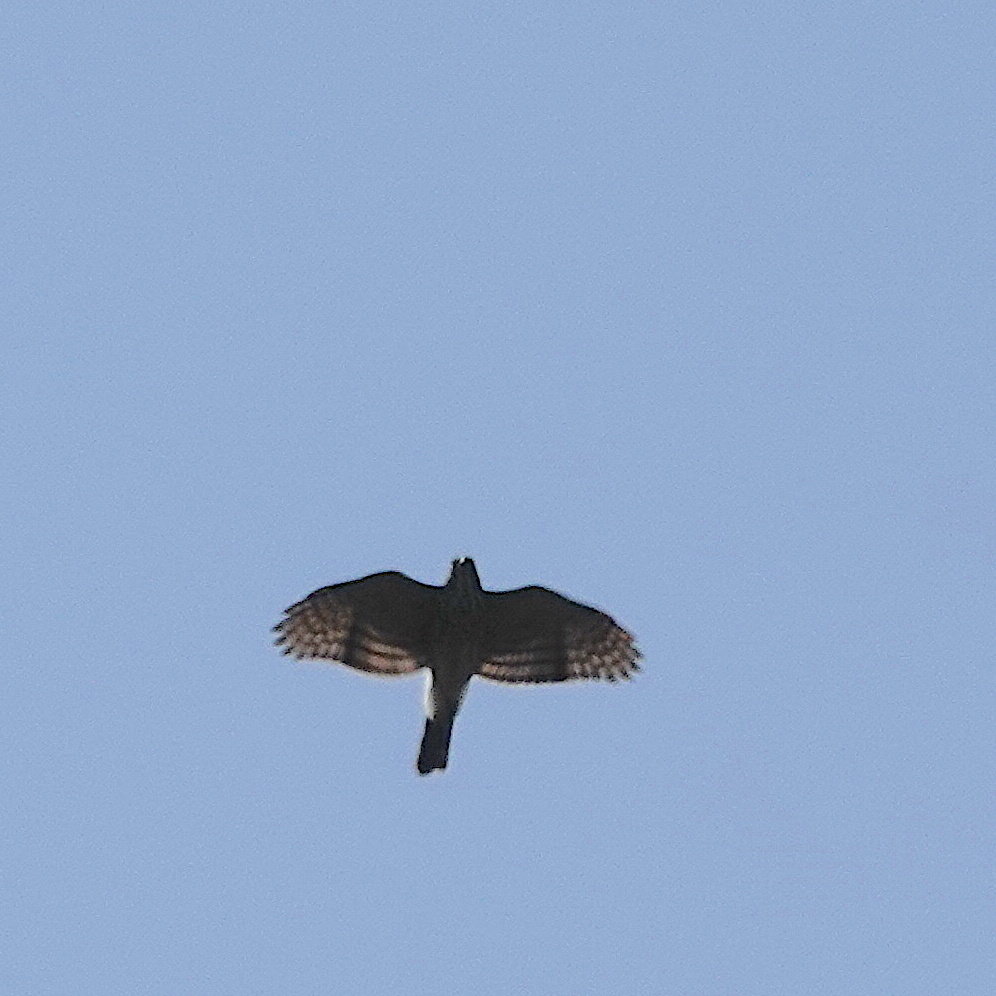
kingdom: Animalia
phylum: Chordata
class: Aves
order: Accipitriformes
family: Accipitridae
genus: Accipiter
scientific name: Accipiter trivirgatus
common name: Crested goshawk
